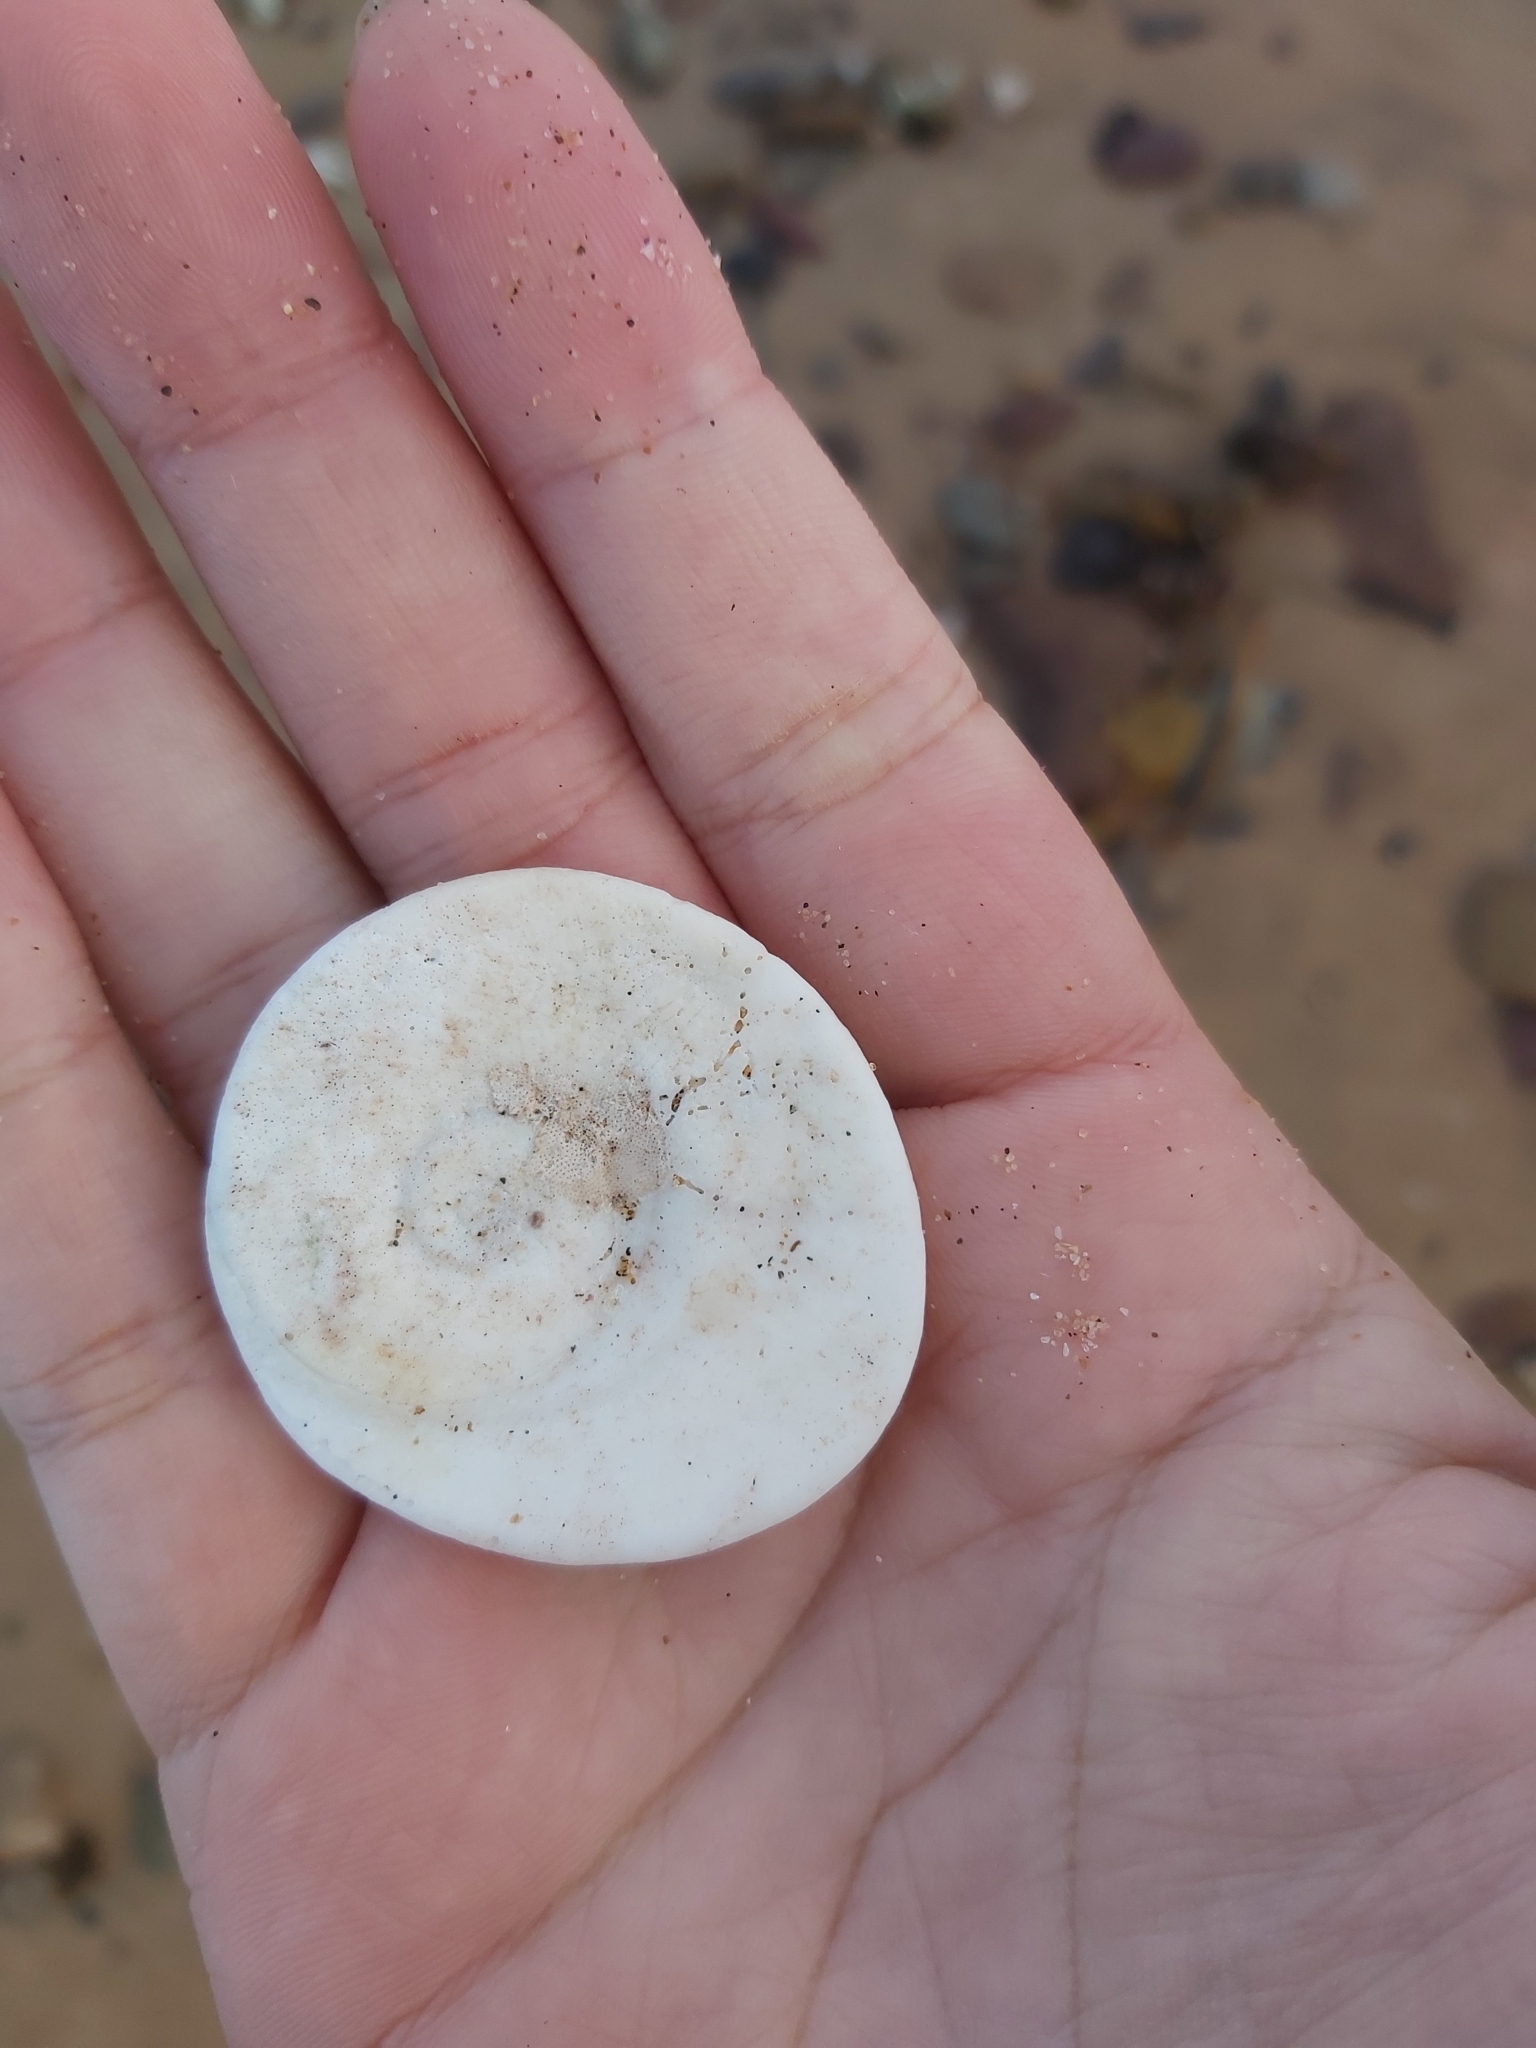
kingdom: Animalia
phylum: Mollusca
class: Gastropoda
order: Trochida
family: Turbinidae
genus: Turbo
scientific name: Turbo militaris
